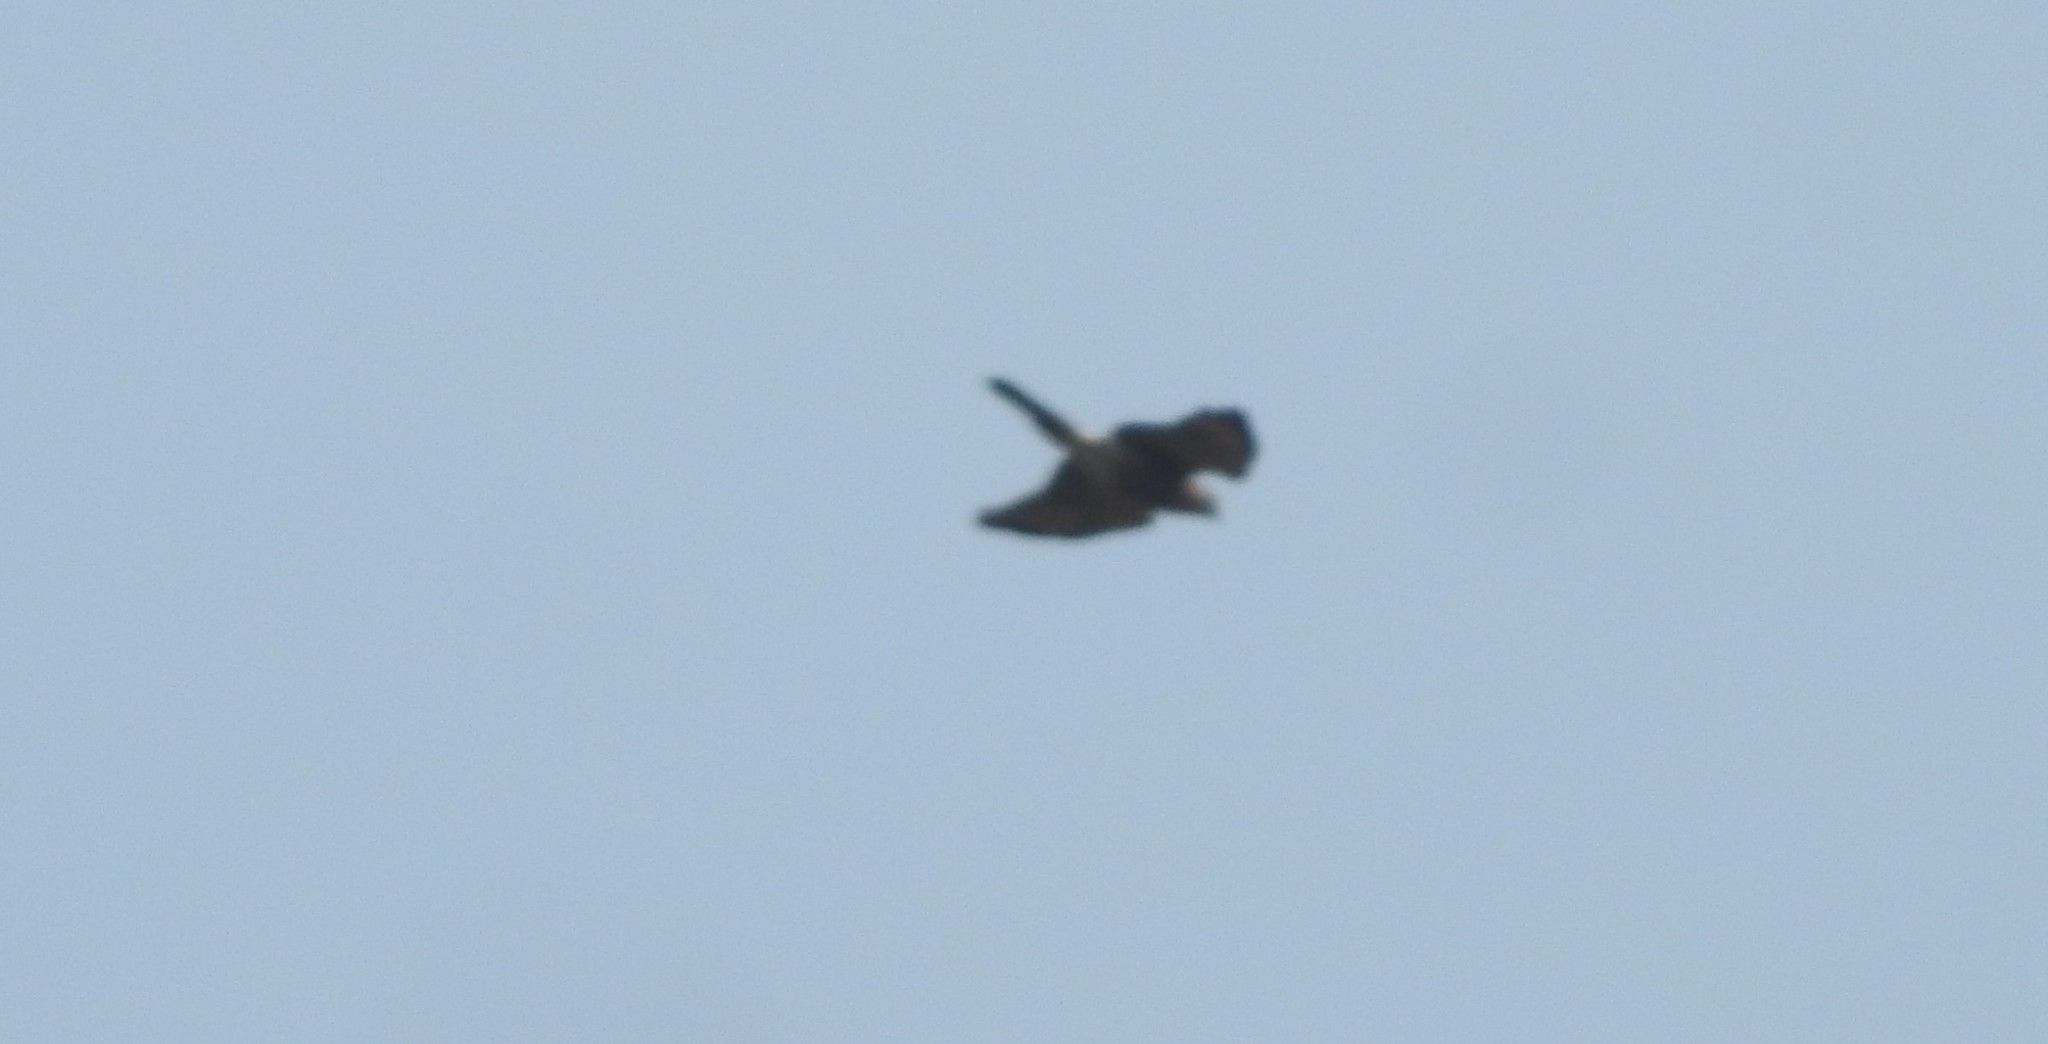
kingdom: Animalia
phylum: Chordata
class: Aves
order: Accipitriformes
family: Accipitridae
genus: Accipiter
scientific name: Accipiter trivirgatus
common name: Crested goshawk
